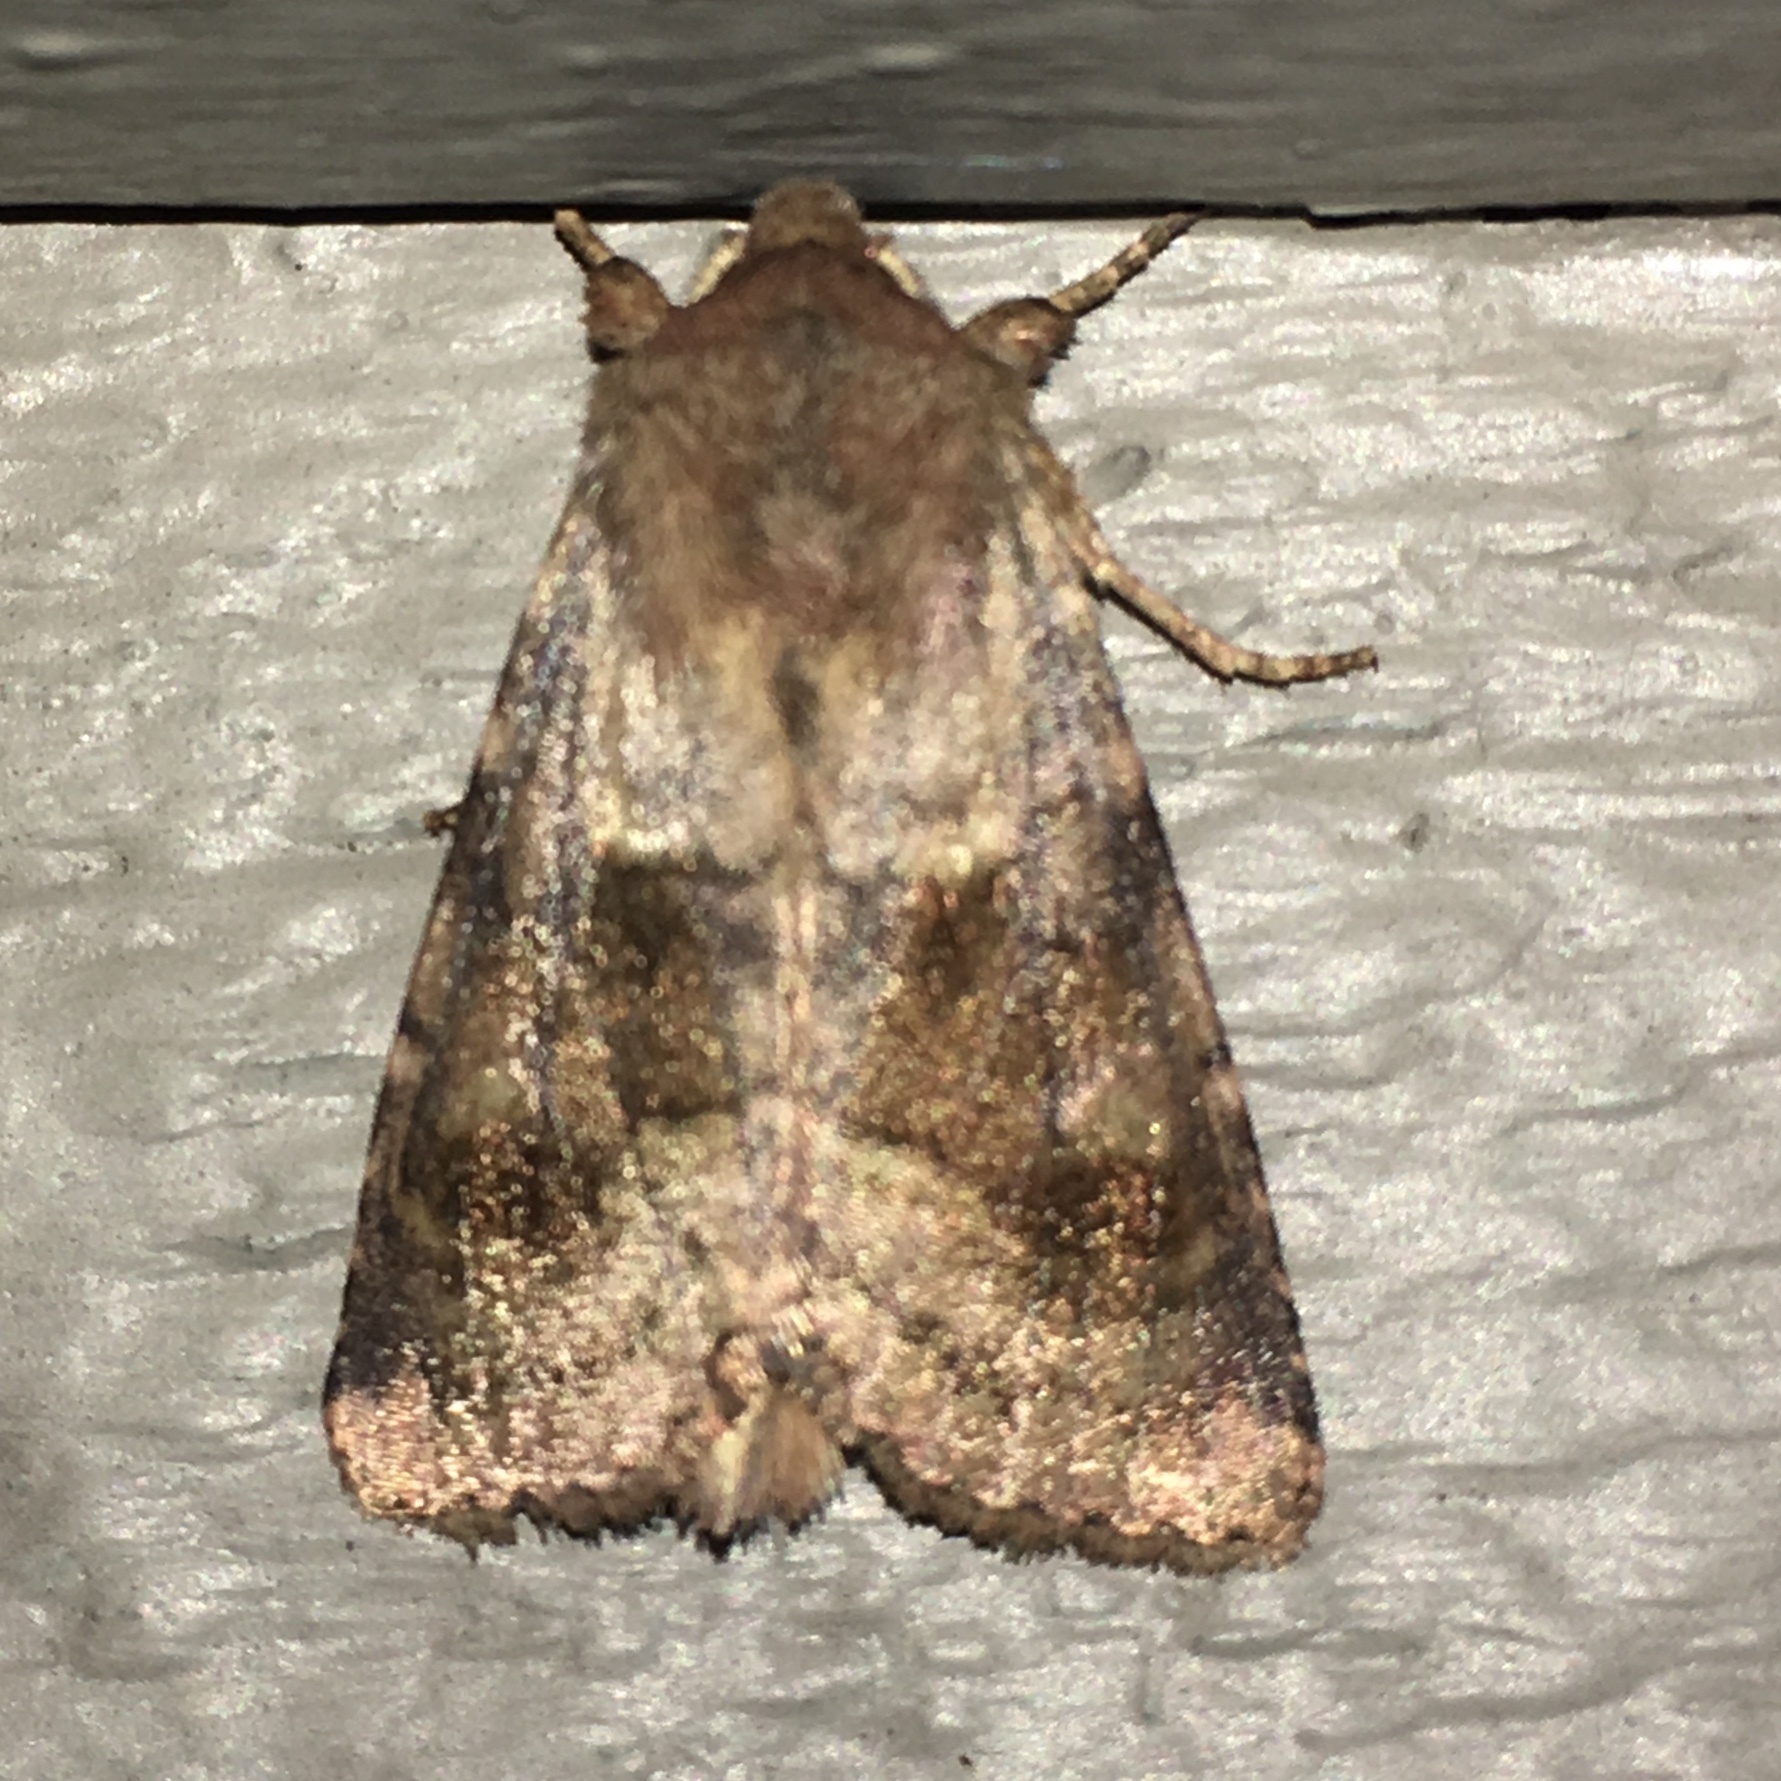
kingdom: Animalia
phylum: Arthropoda
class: Insecta
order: Lepidoptera
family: Noctuidae
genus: Nephelodes
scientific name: Nephelodes minians
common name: Bronzed cutworm
